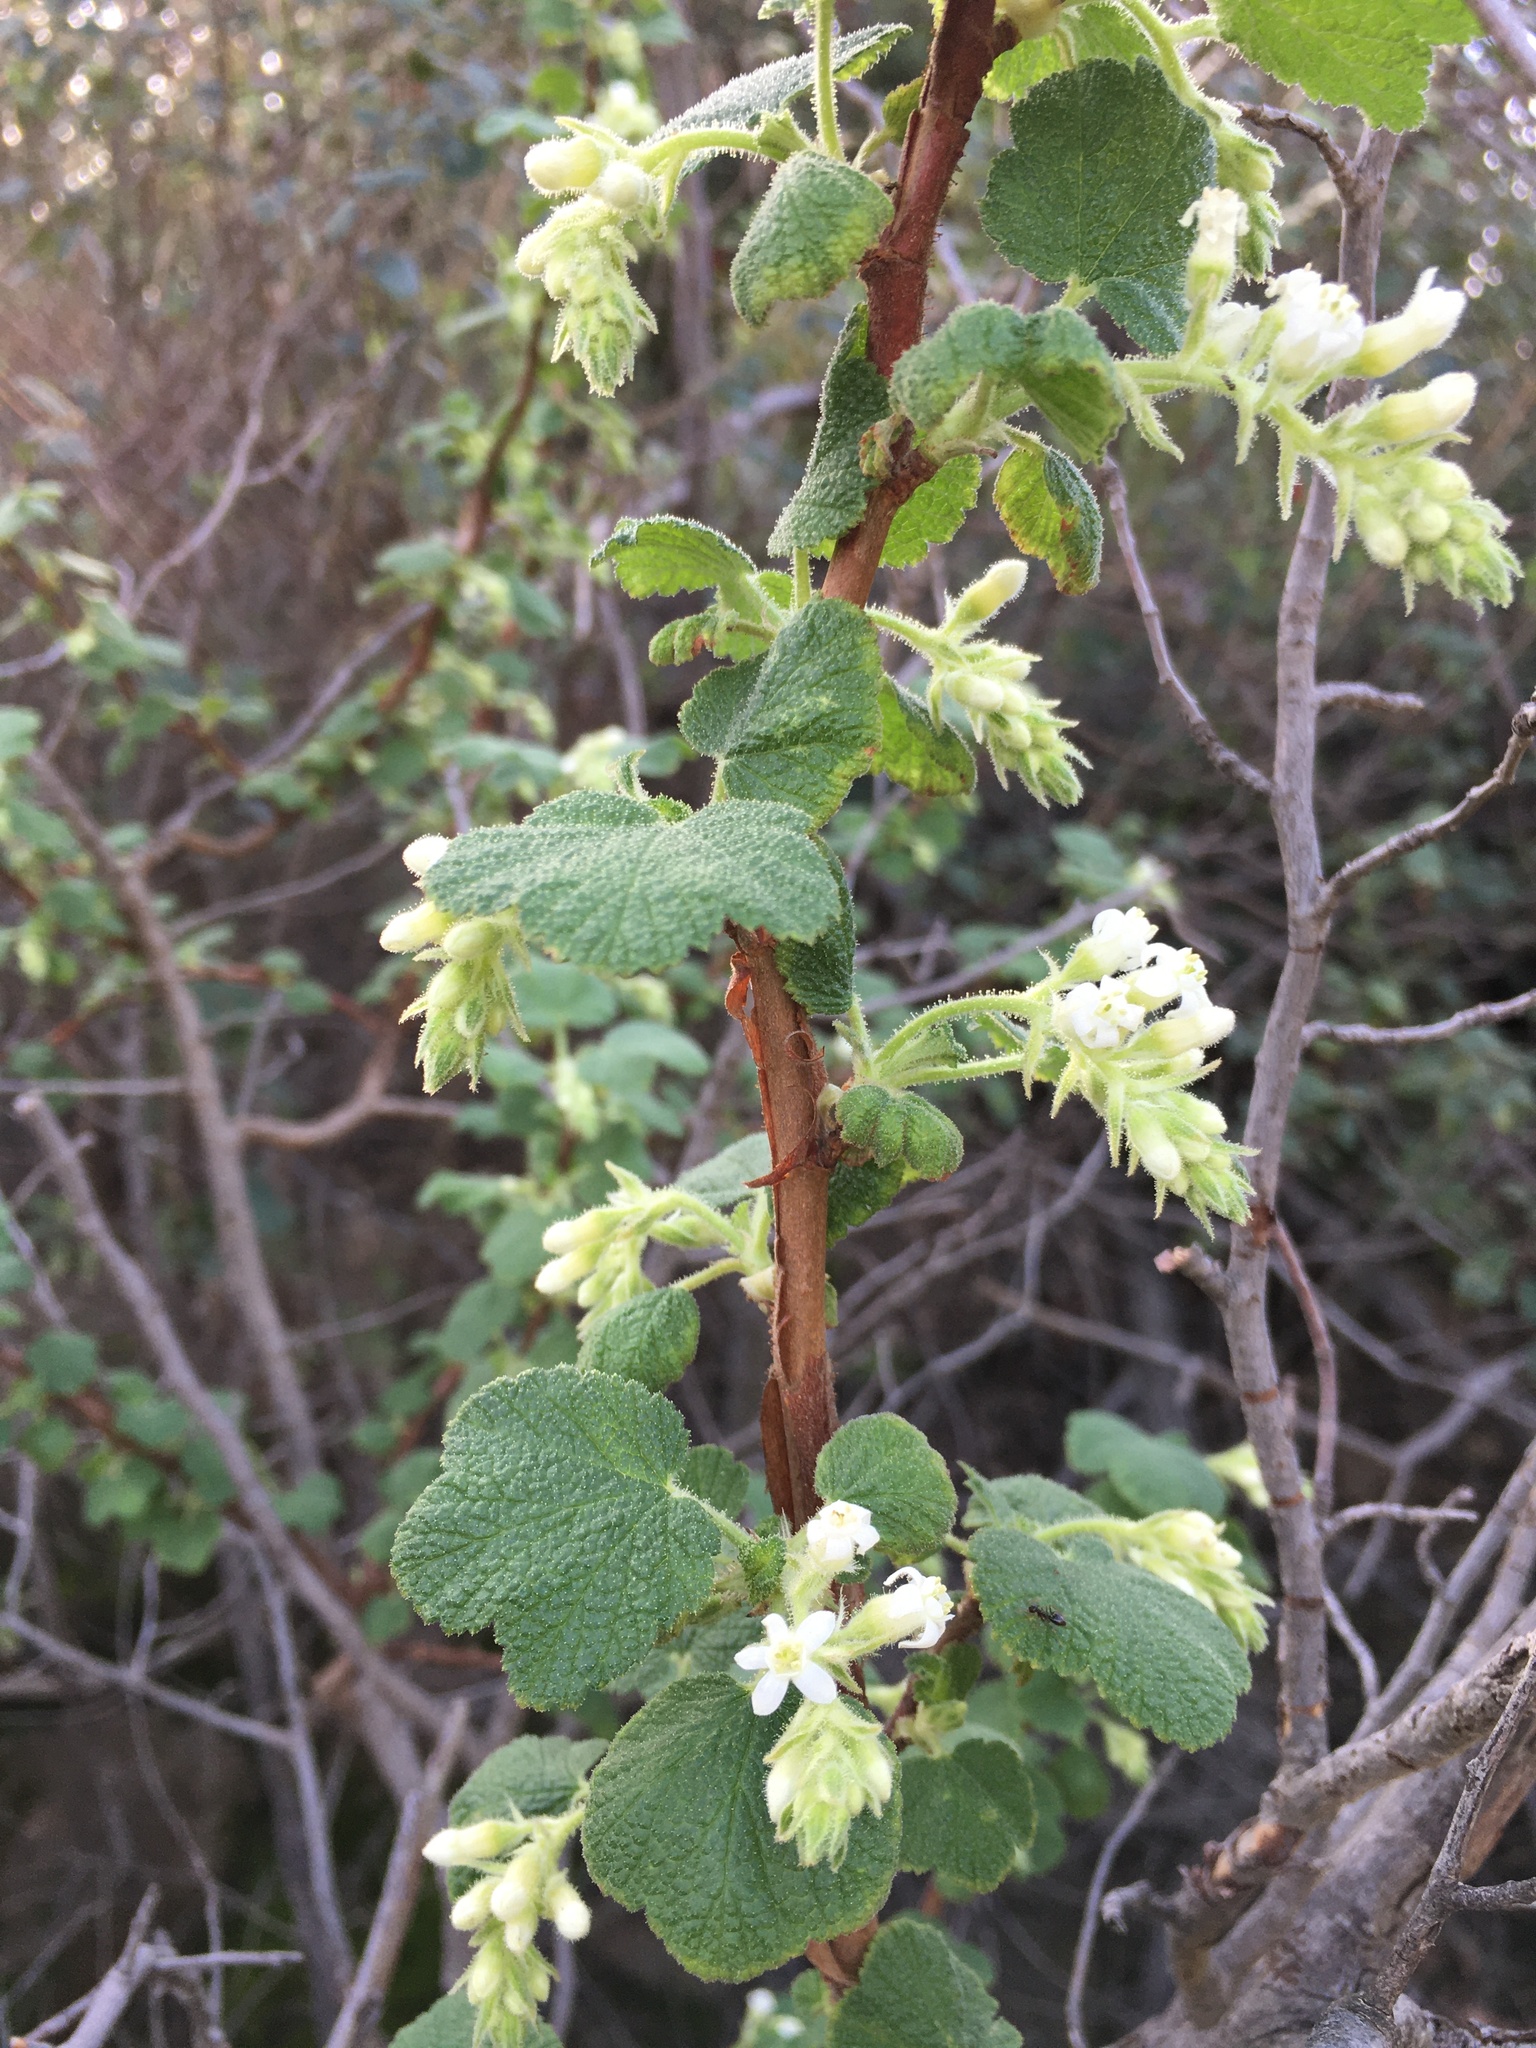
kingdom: Plantae
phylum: Tracheophyta
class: Magnoliopsida
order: Saxifragales
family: Grossulariaceae
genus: Ribes
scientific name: Ribes indecorum
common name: White-flower currant
